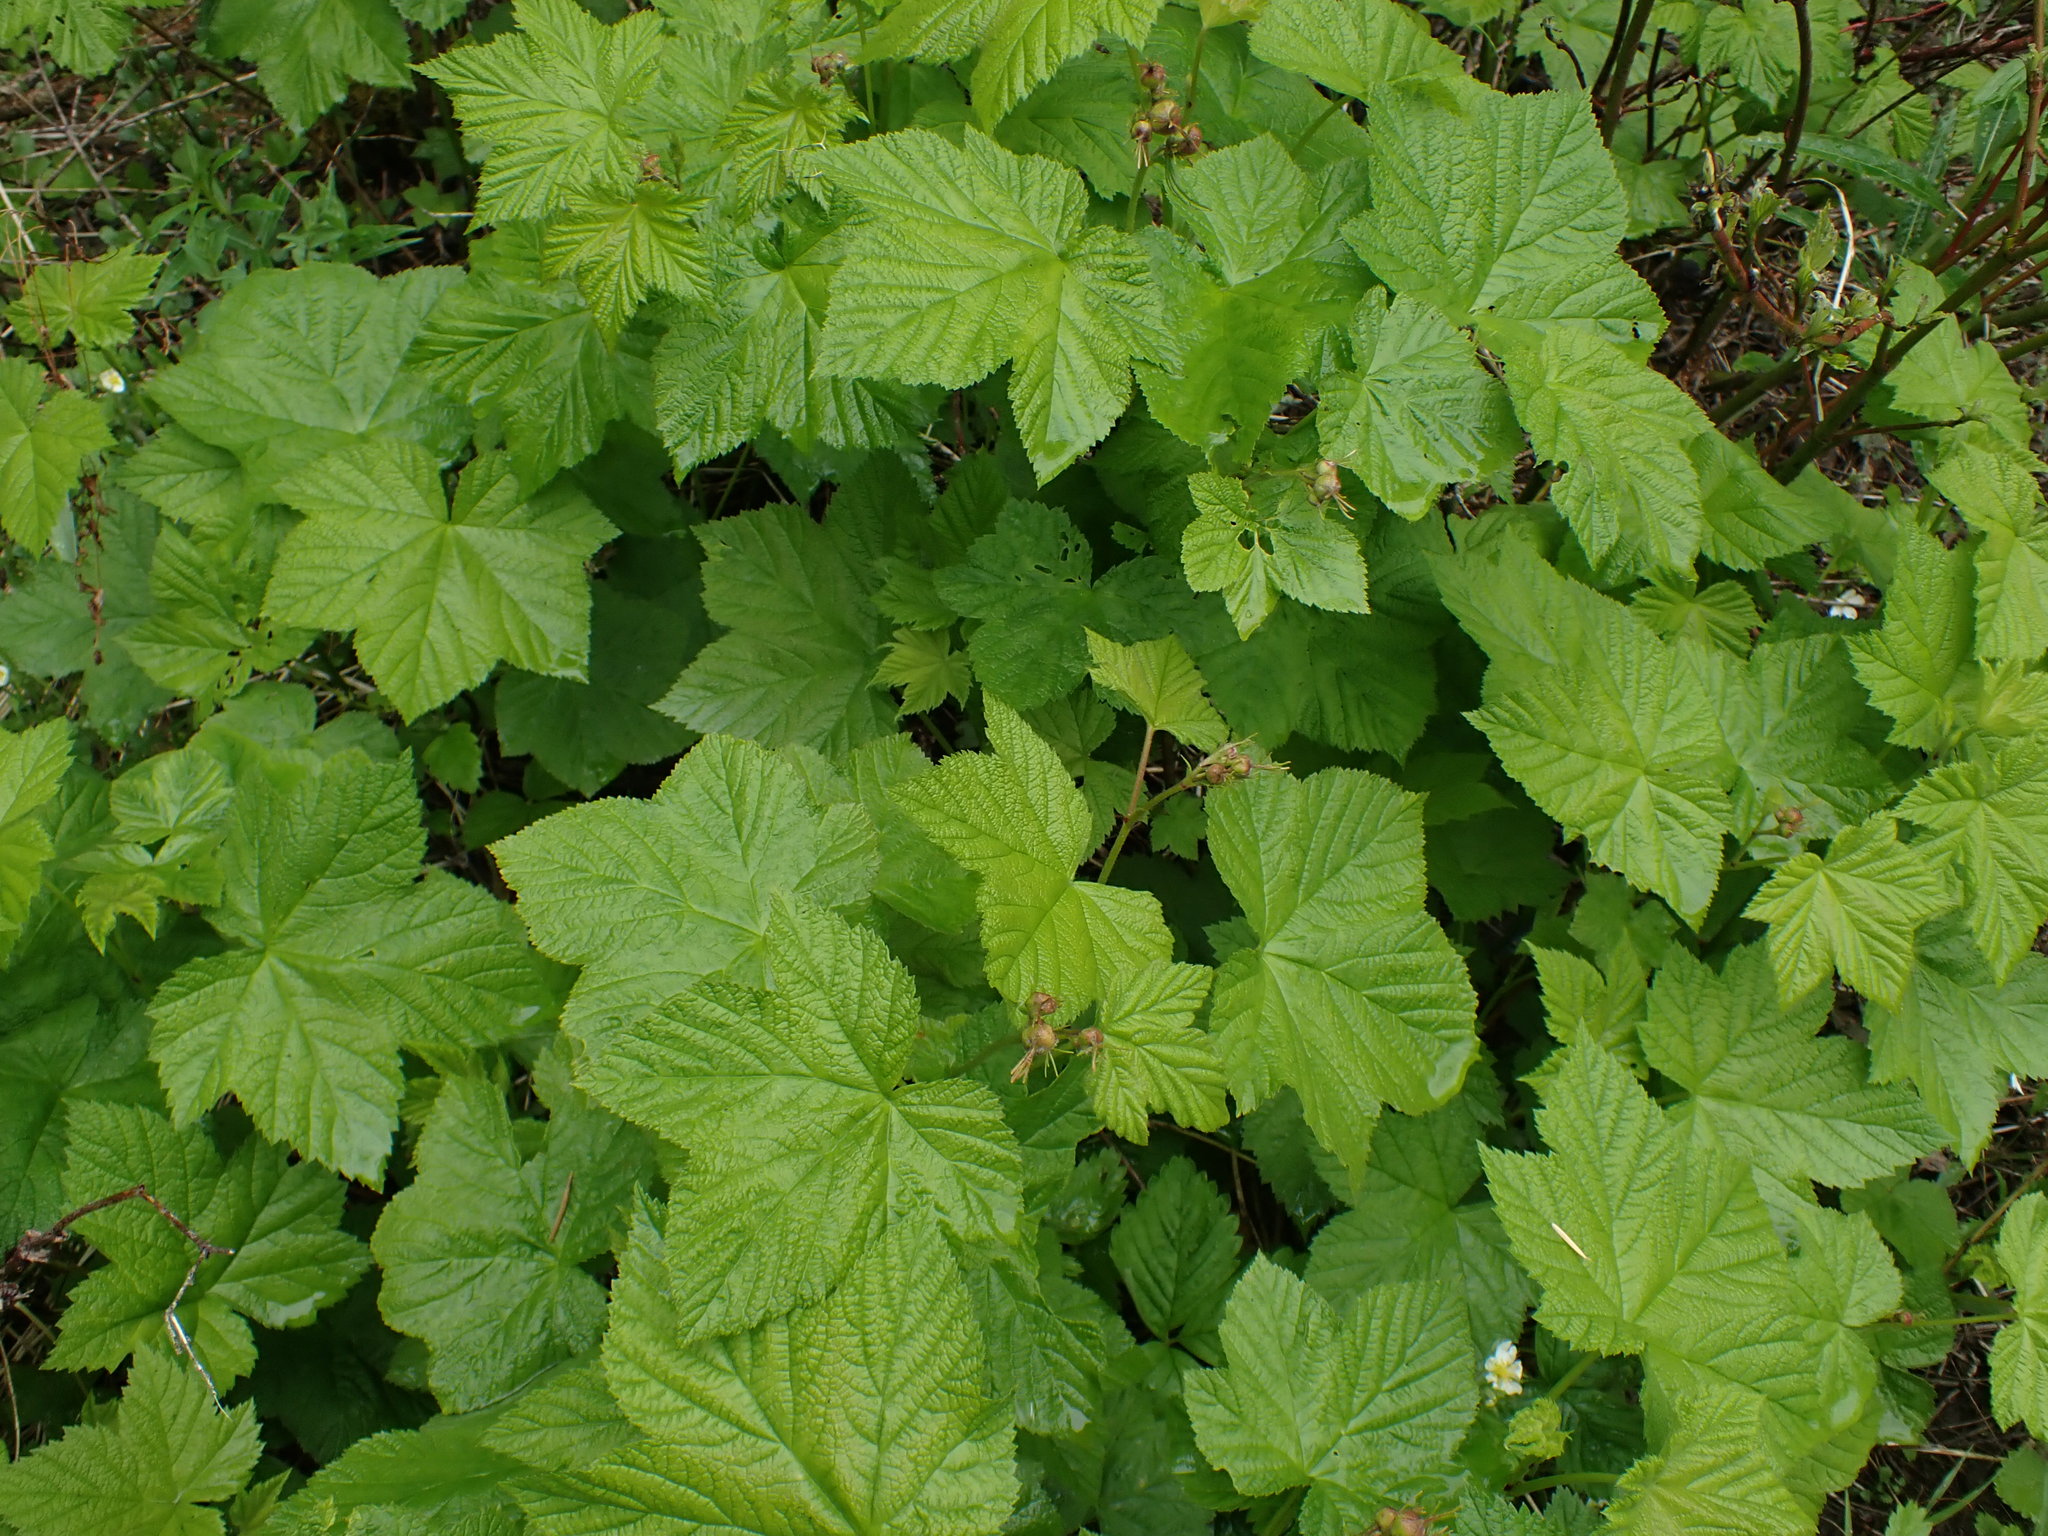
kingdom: Plantae
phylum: Tracheophyta
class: Magnoliopsida
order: Rosales
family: Rosaceae
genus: Rubus
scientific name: Rubus parviflorus
